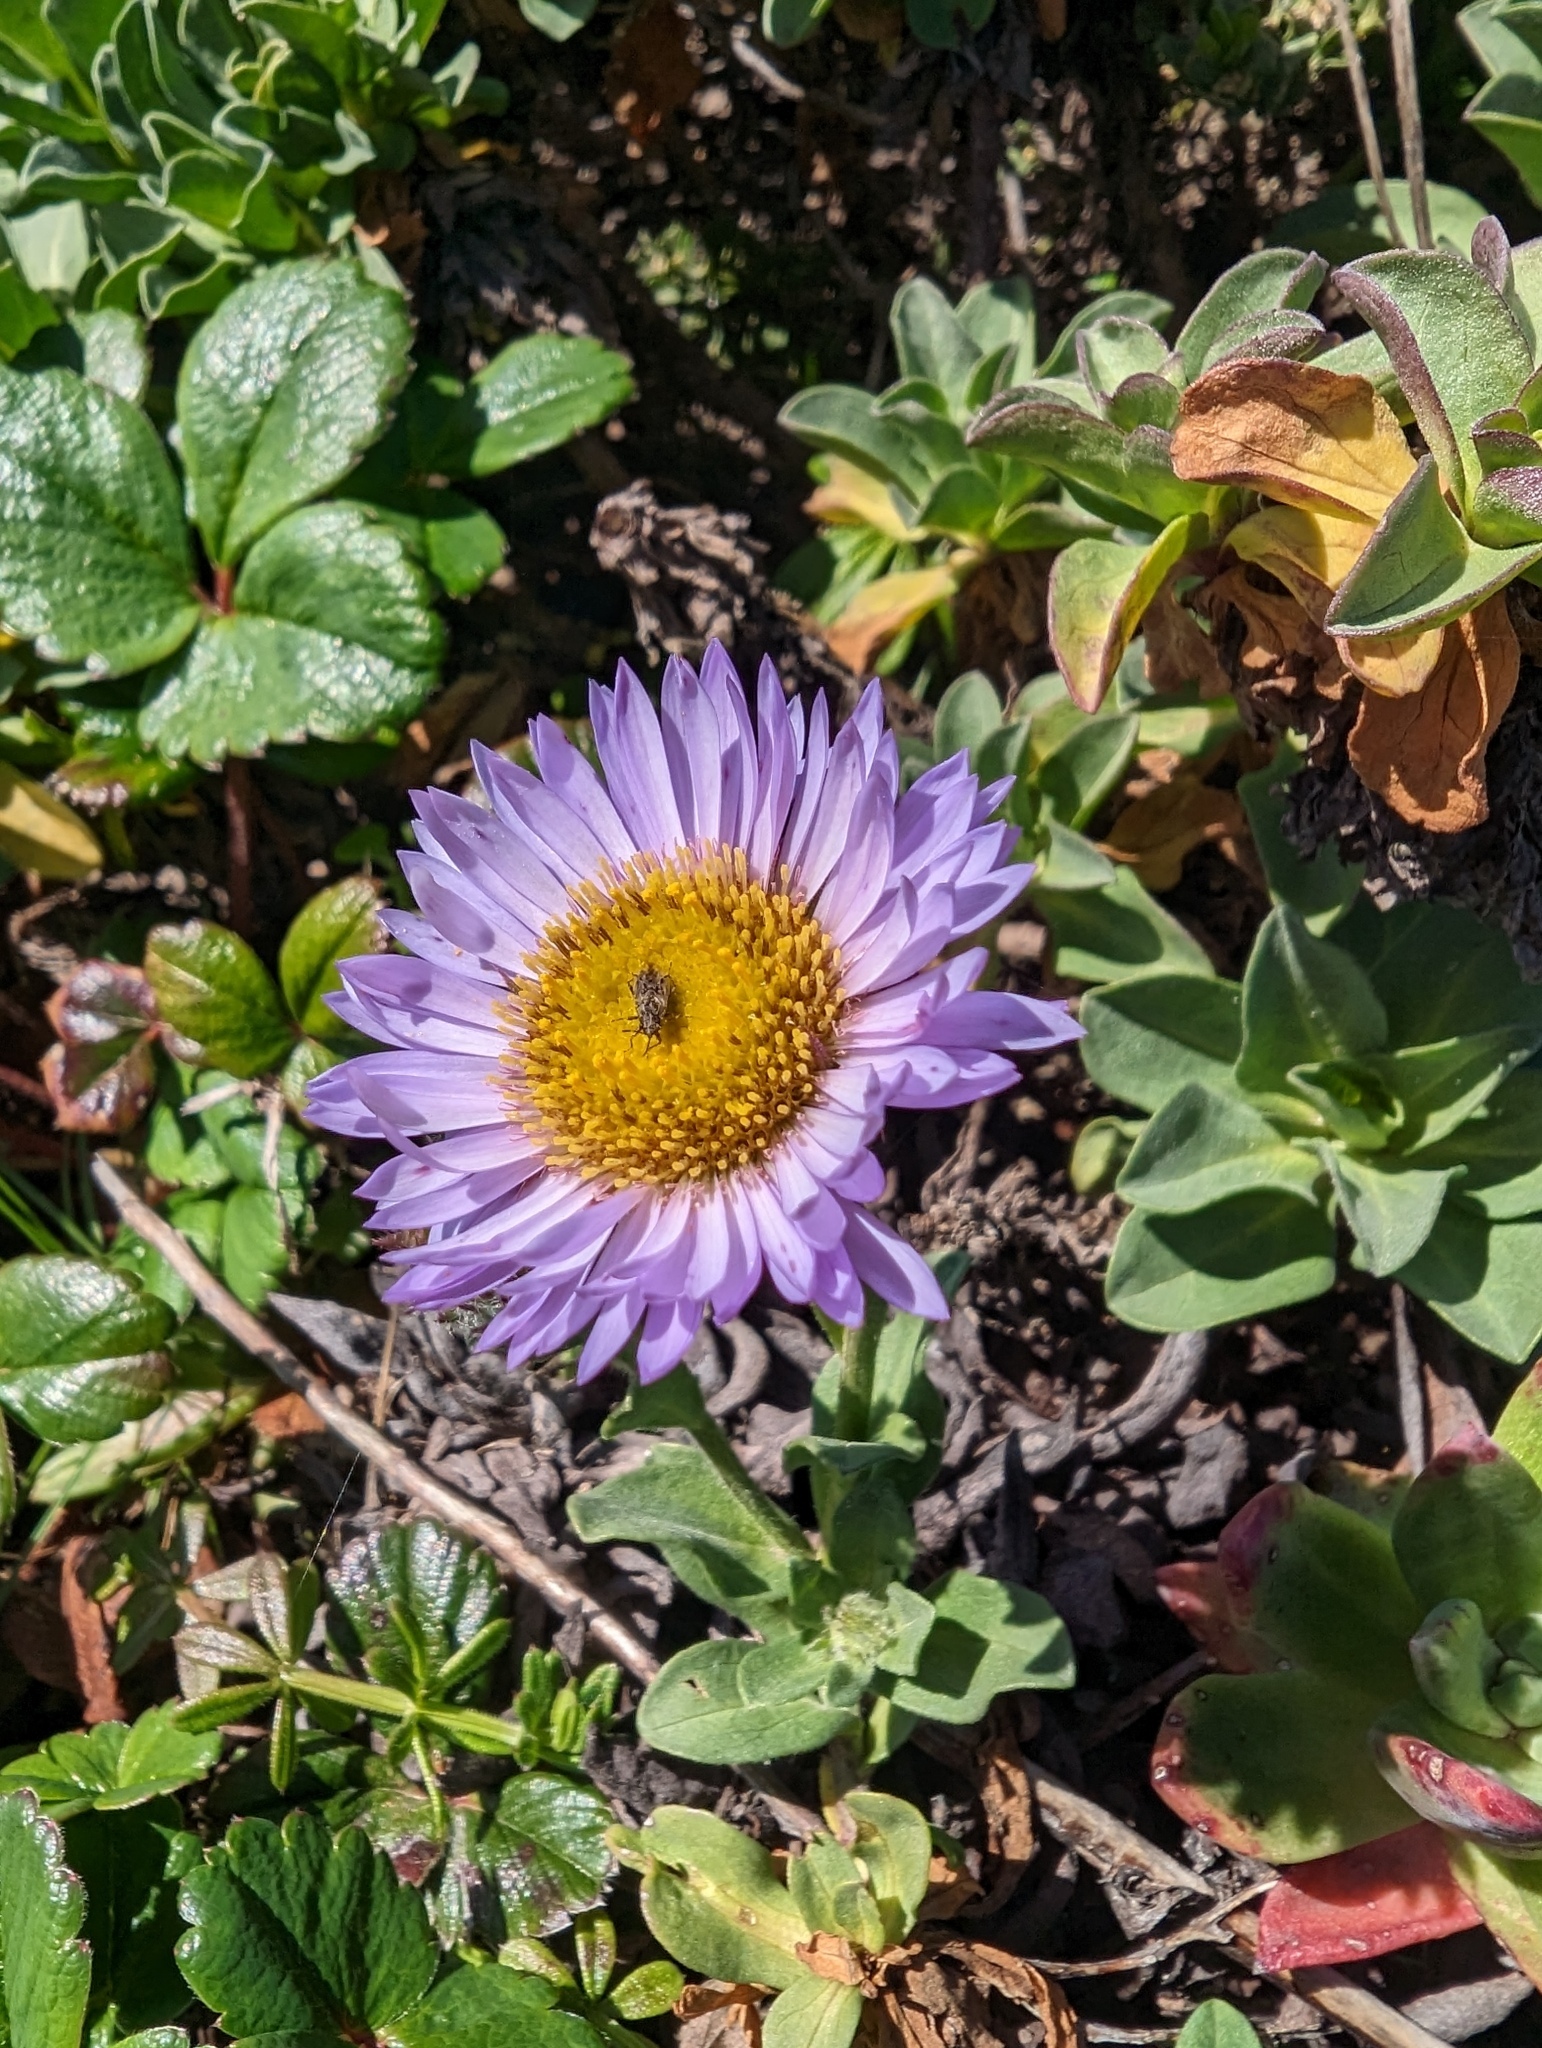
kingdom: Plantae
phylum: Tracheophyta
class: Magnoliopsida
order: Asterales
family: Asteraceae
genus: Erigeron
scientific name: Erigeron glaucus
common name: Seaside daisy
